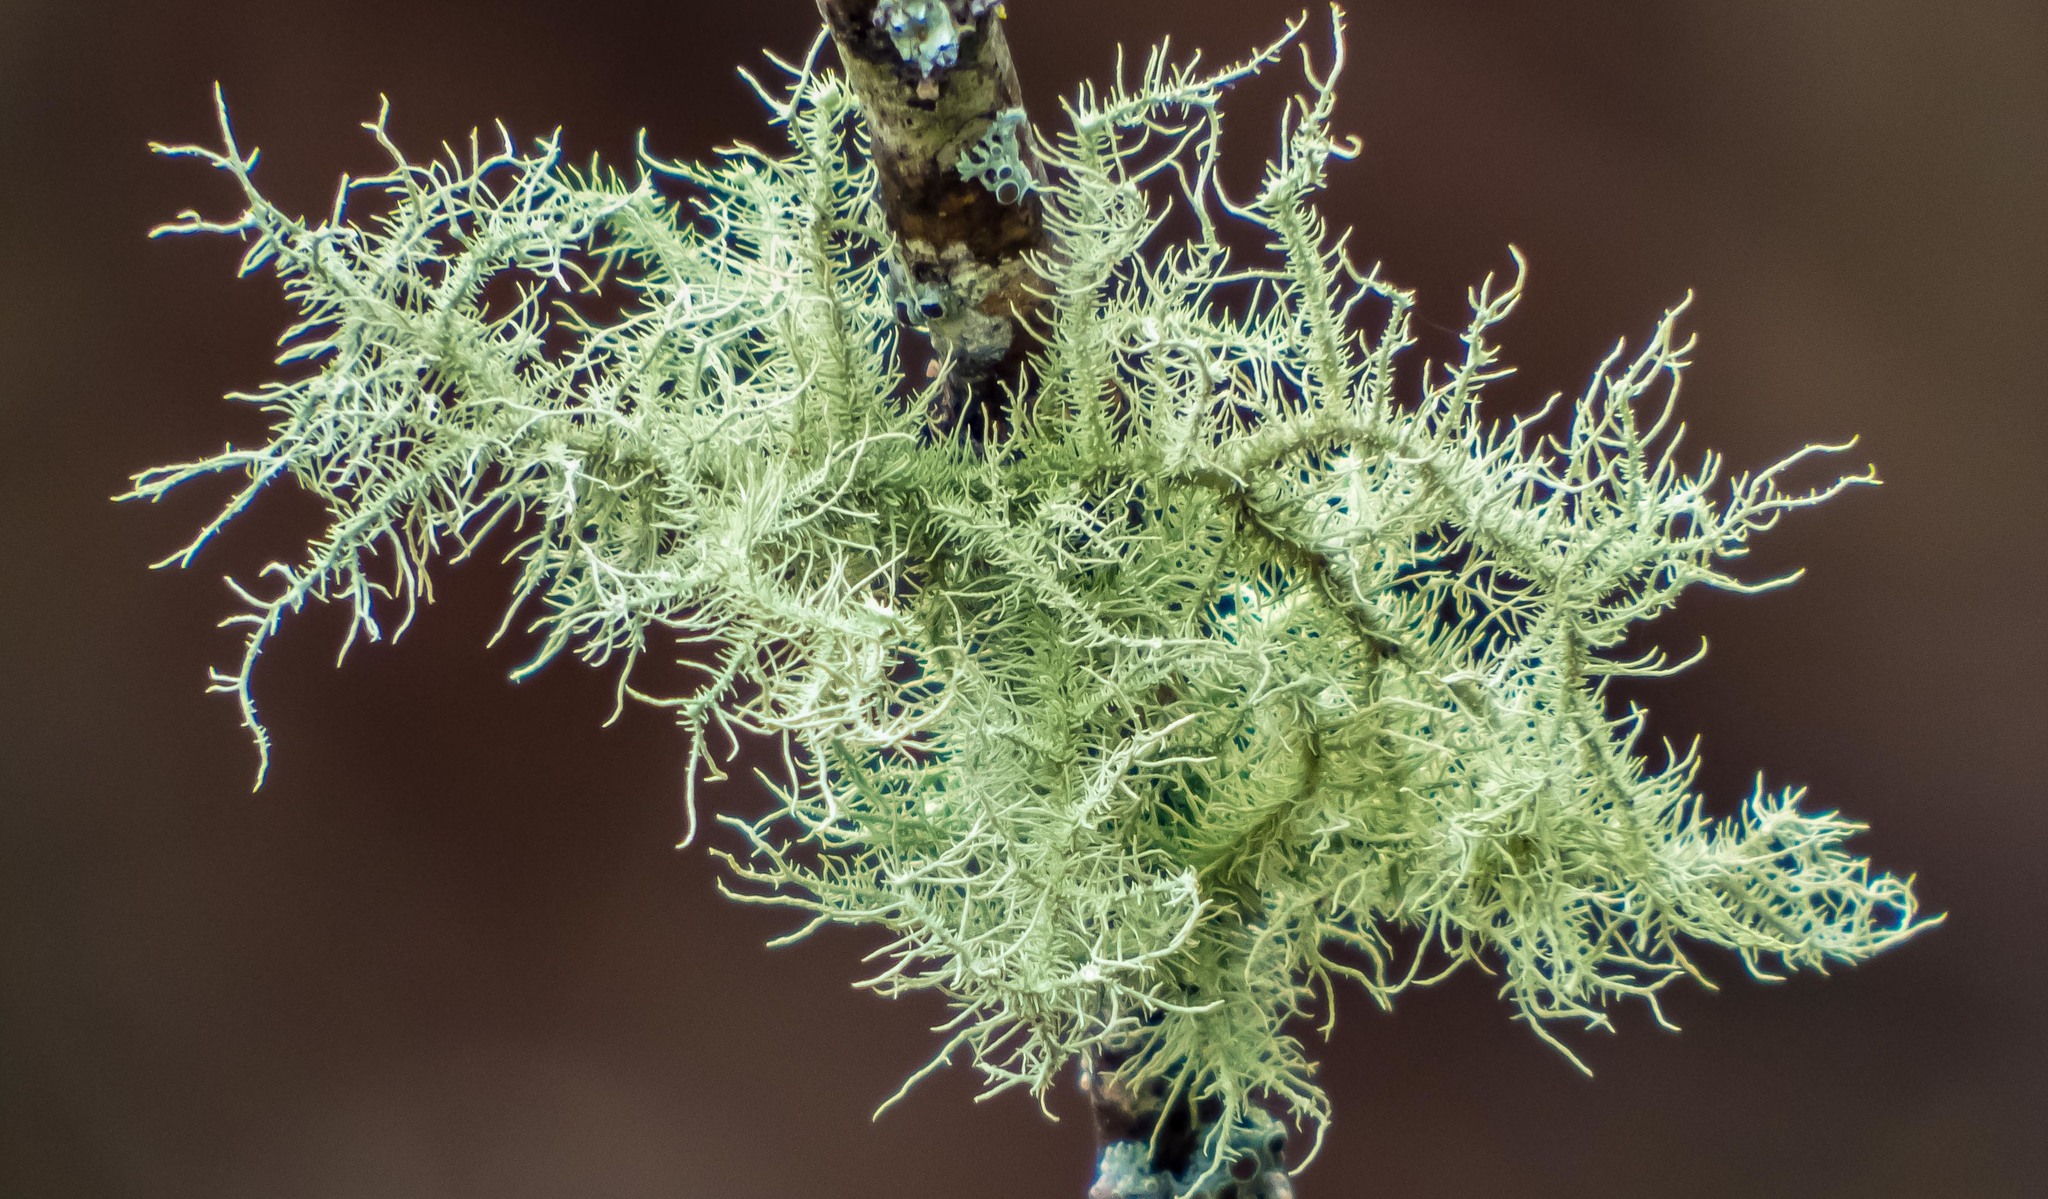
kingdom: Fungi
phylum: Ascomycota
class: Lecanoromycetes
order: Lecanorales
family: Parmeliaceae
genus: Usnea
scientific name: Usnea strigosa
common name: Bushy beard lichen
